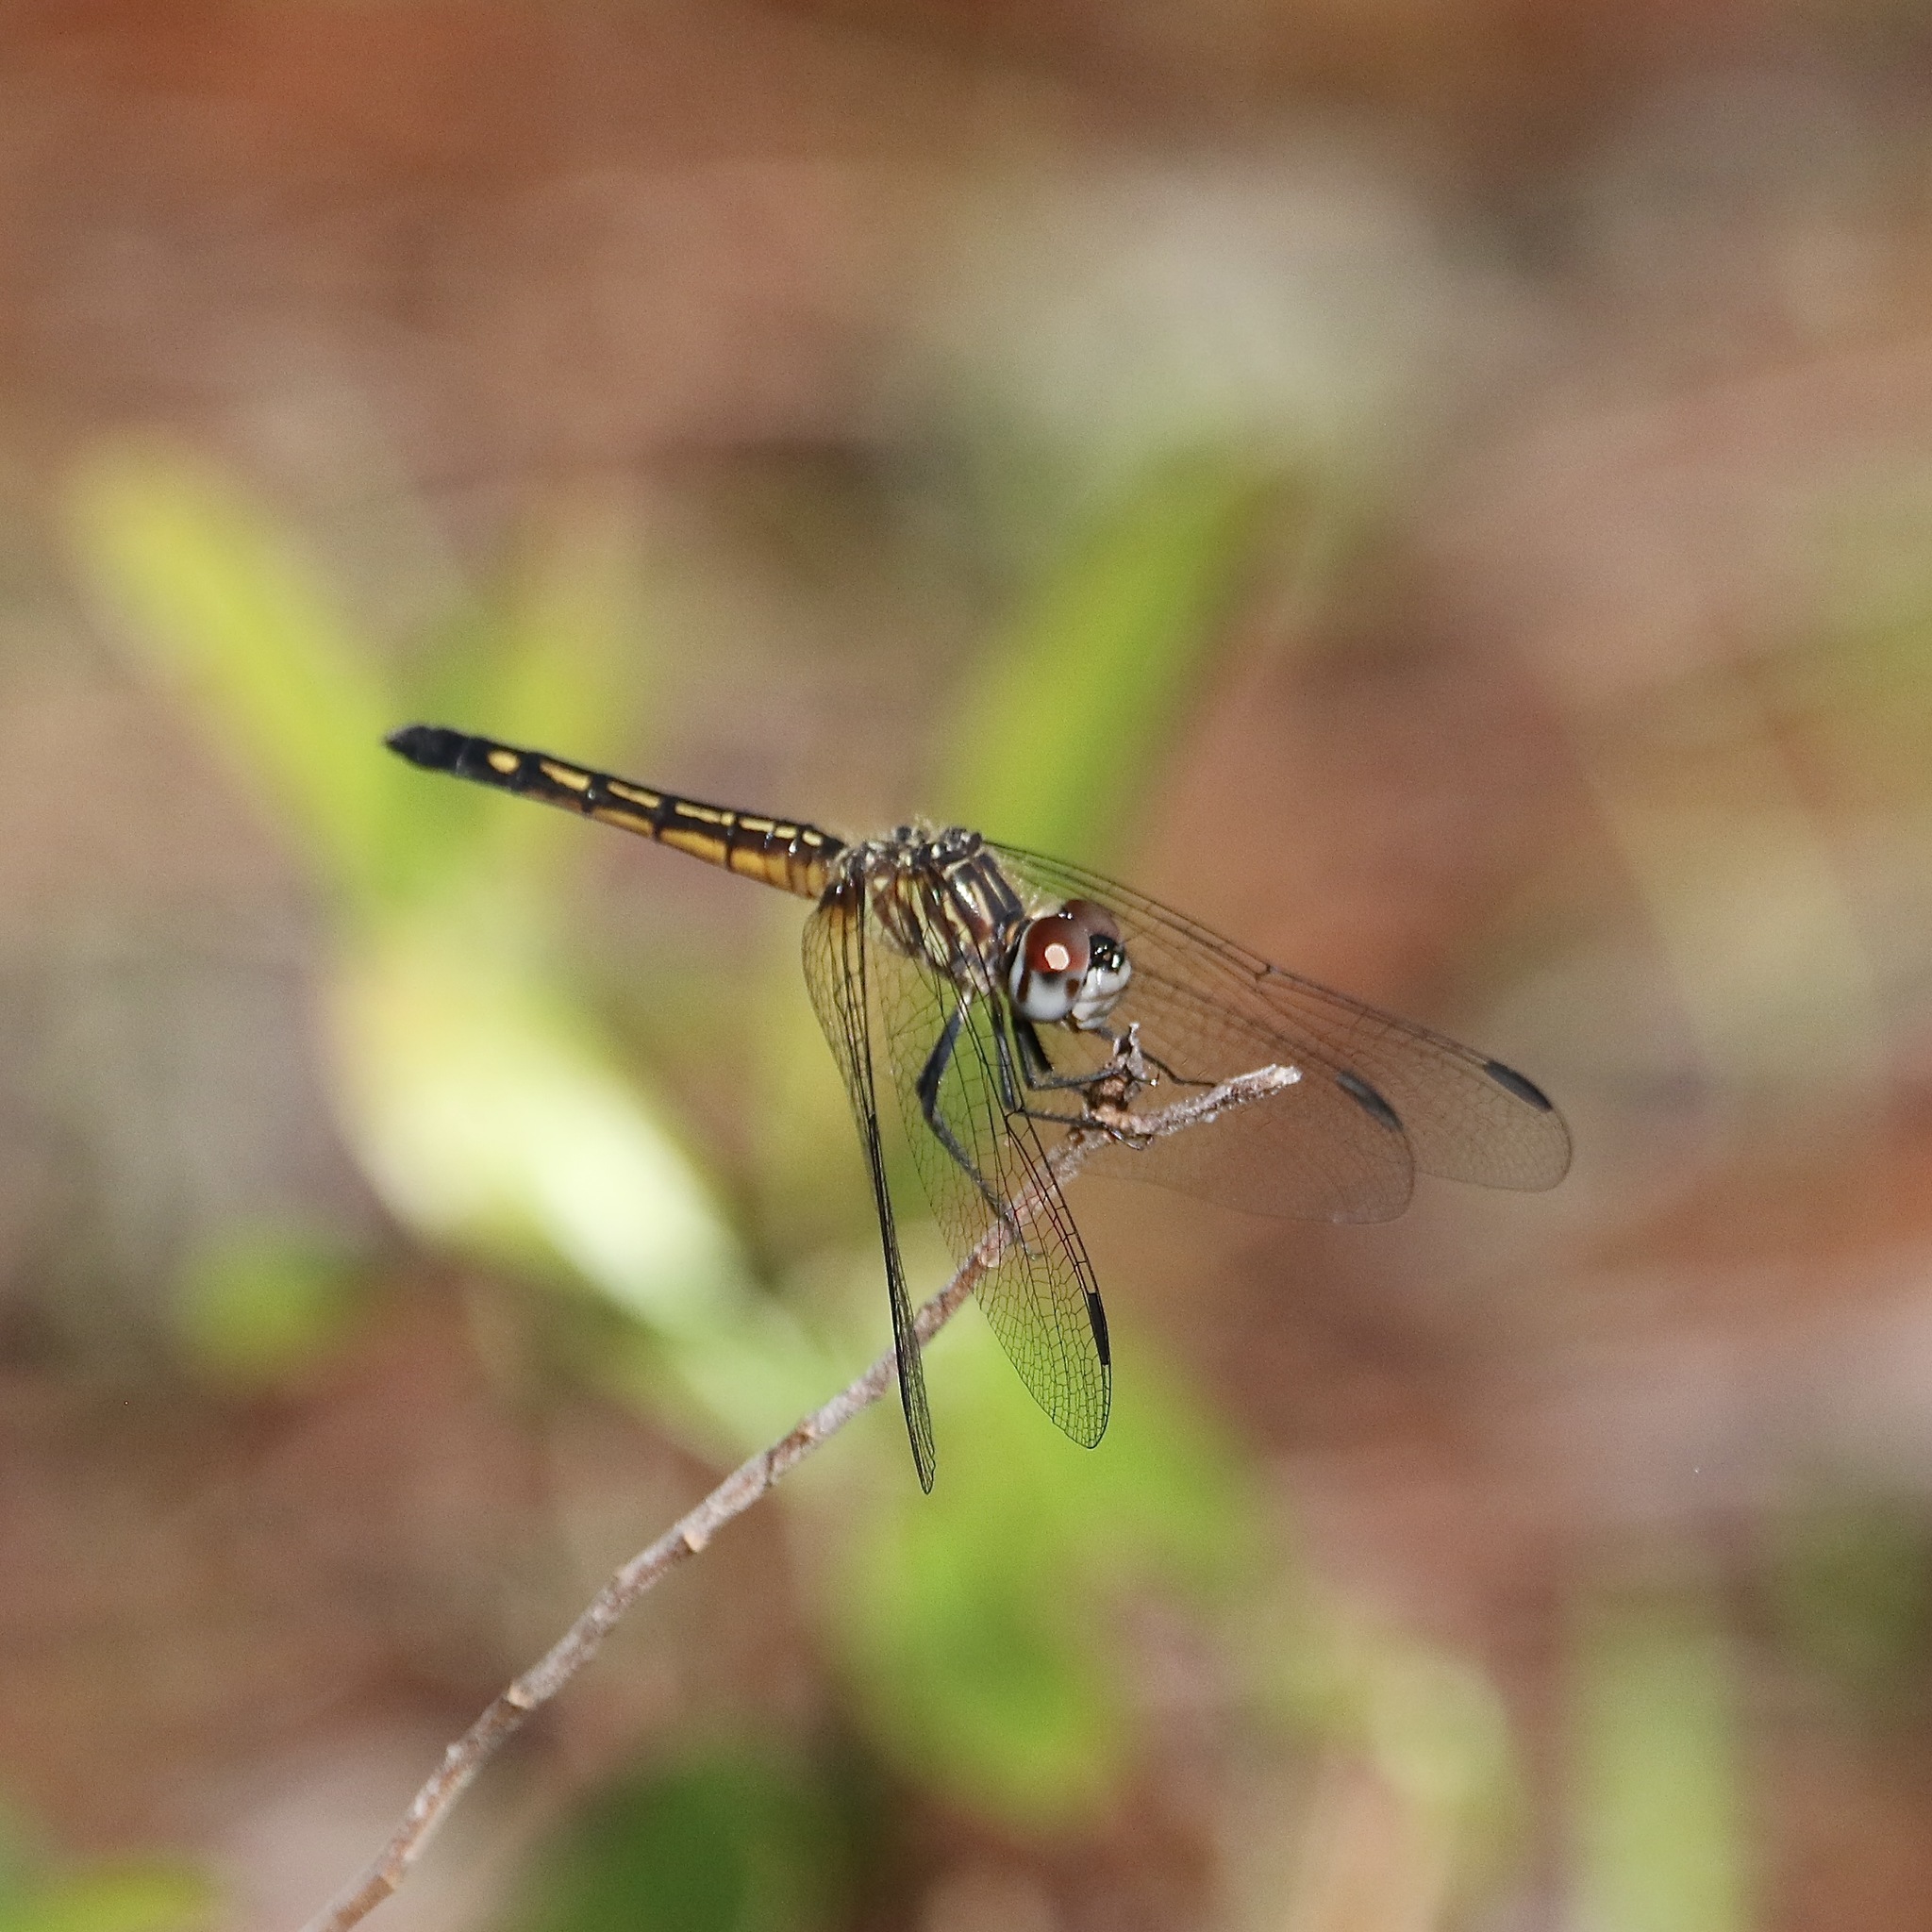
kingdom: Animalia
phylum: Arthropoda
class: Insecta
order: Odonata
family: Libellulidae
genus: Pachydiplax
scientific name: Pachydiplax longipennis
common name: Blue dasher
